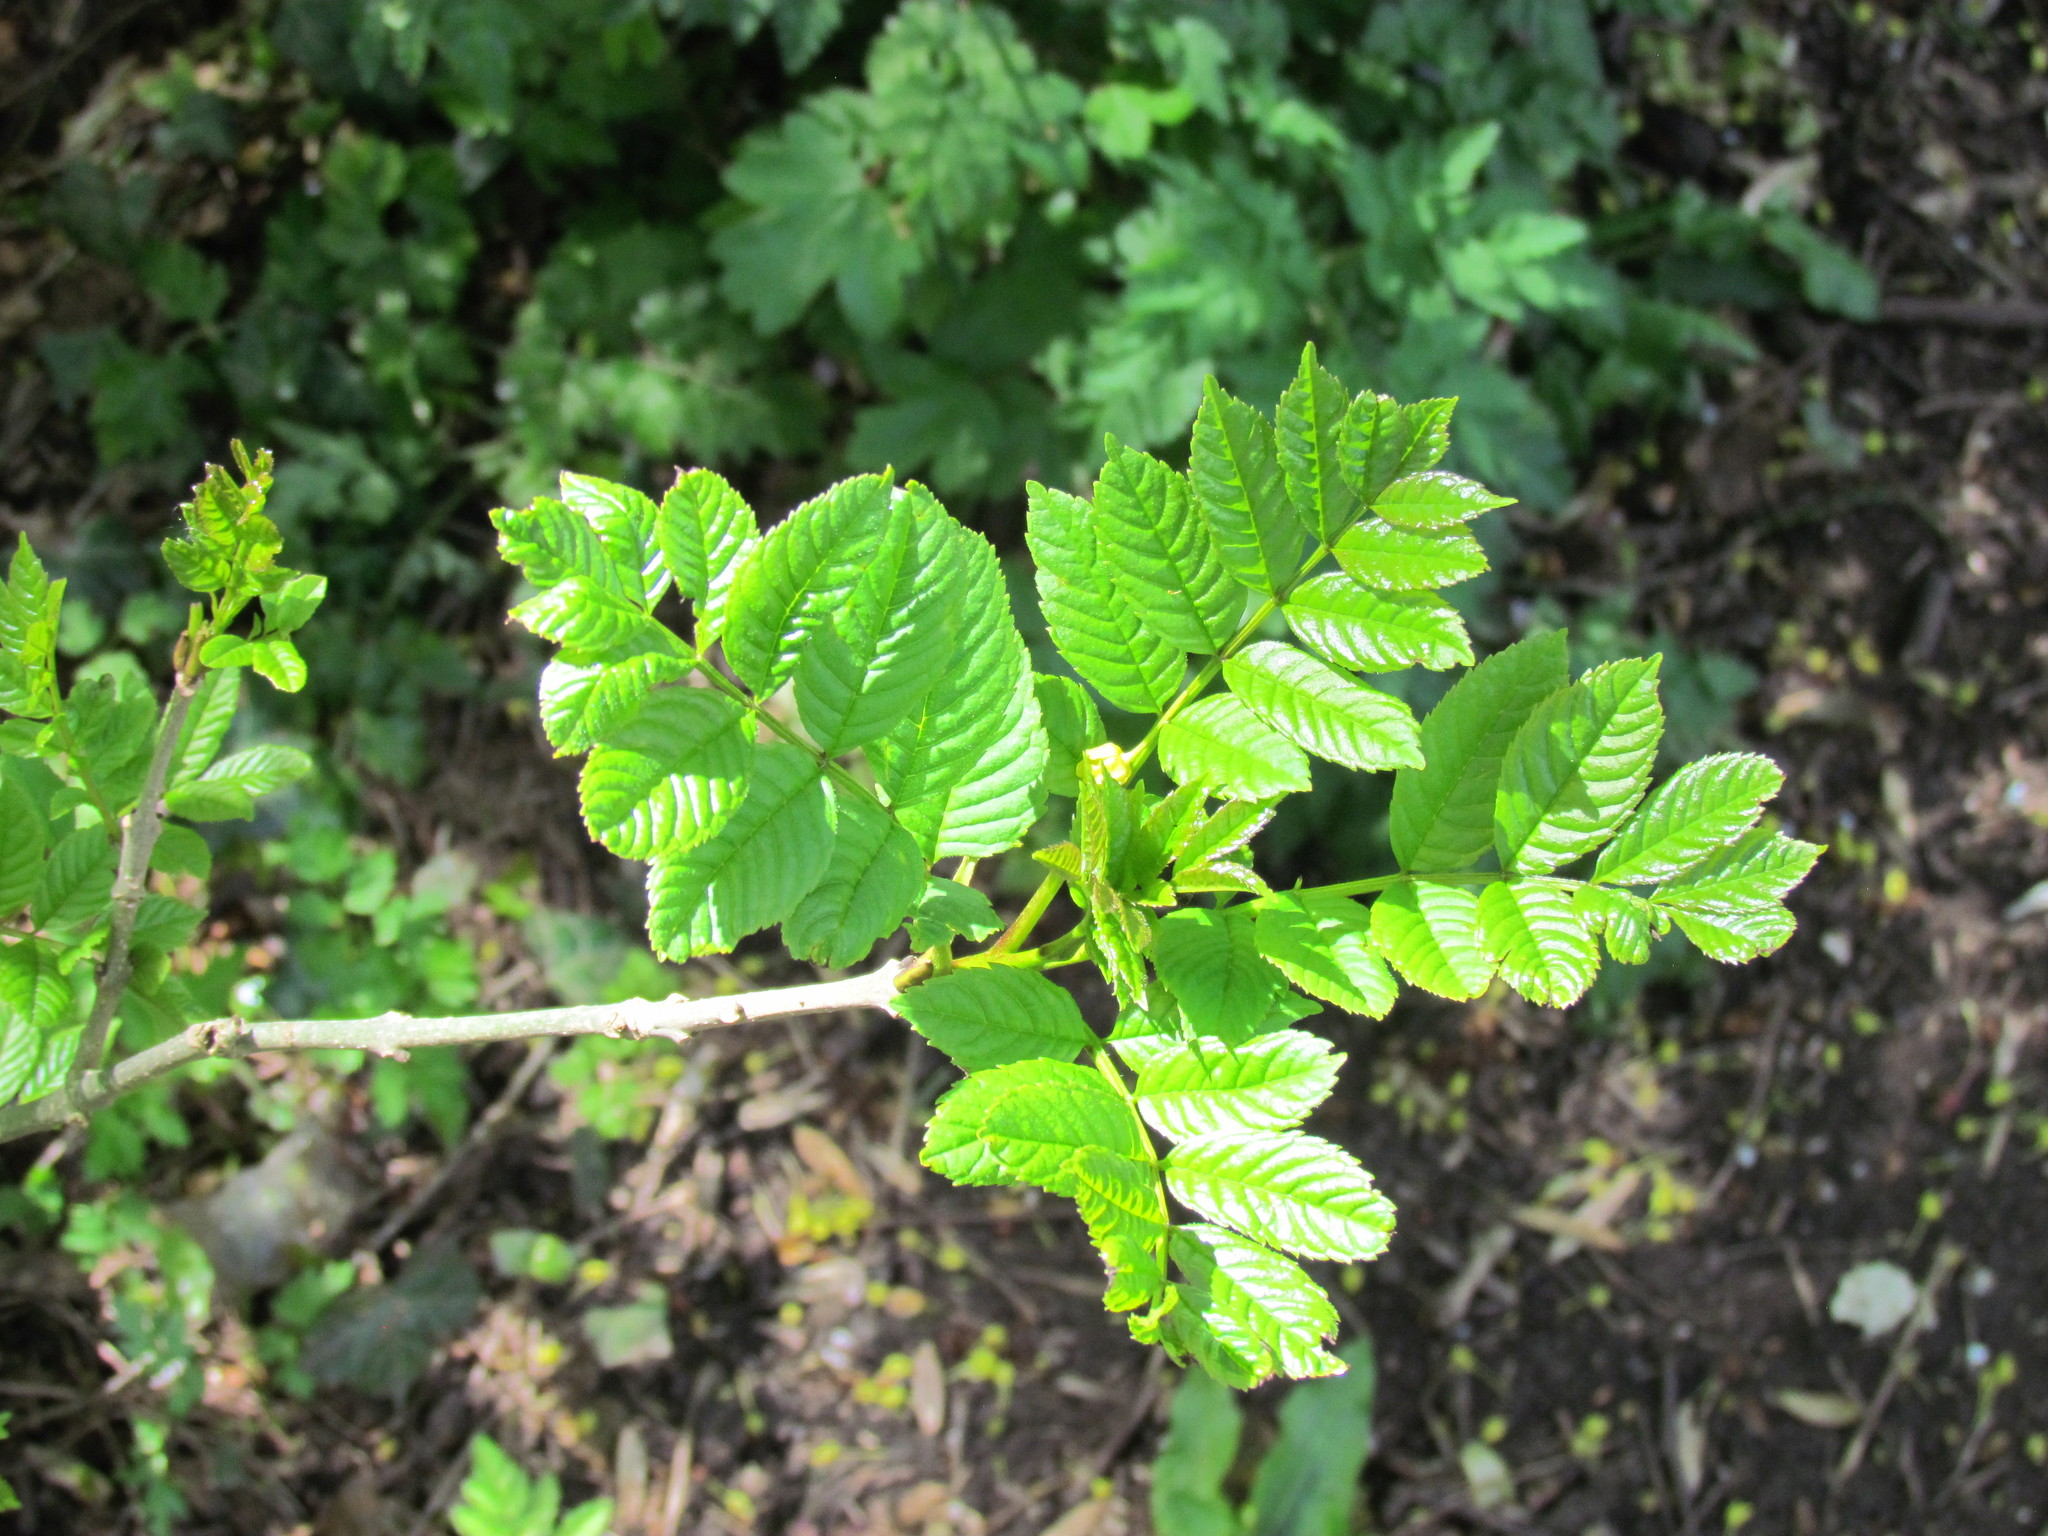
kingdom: Plantae
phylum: Tracheophyta
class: Magnoliopsida
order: Lamiales
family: Oleaceae
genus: Fraxinus
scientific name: Fraxinus excelsior
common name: European ash
